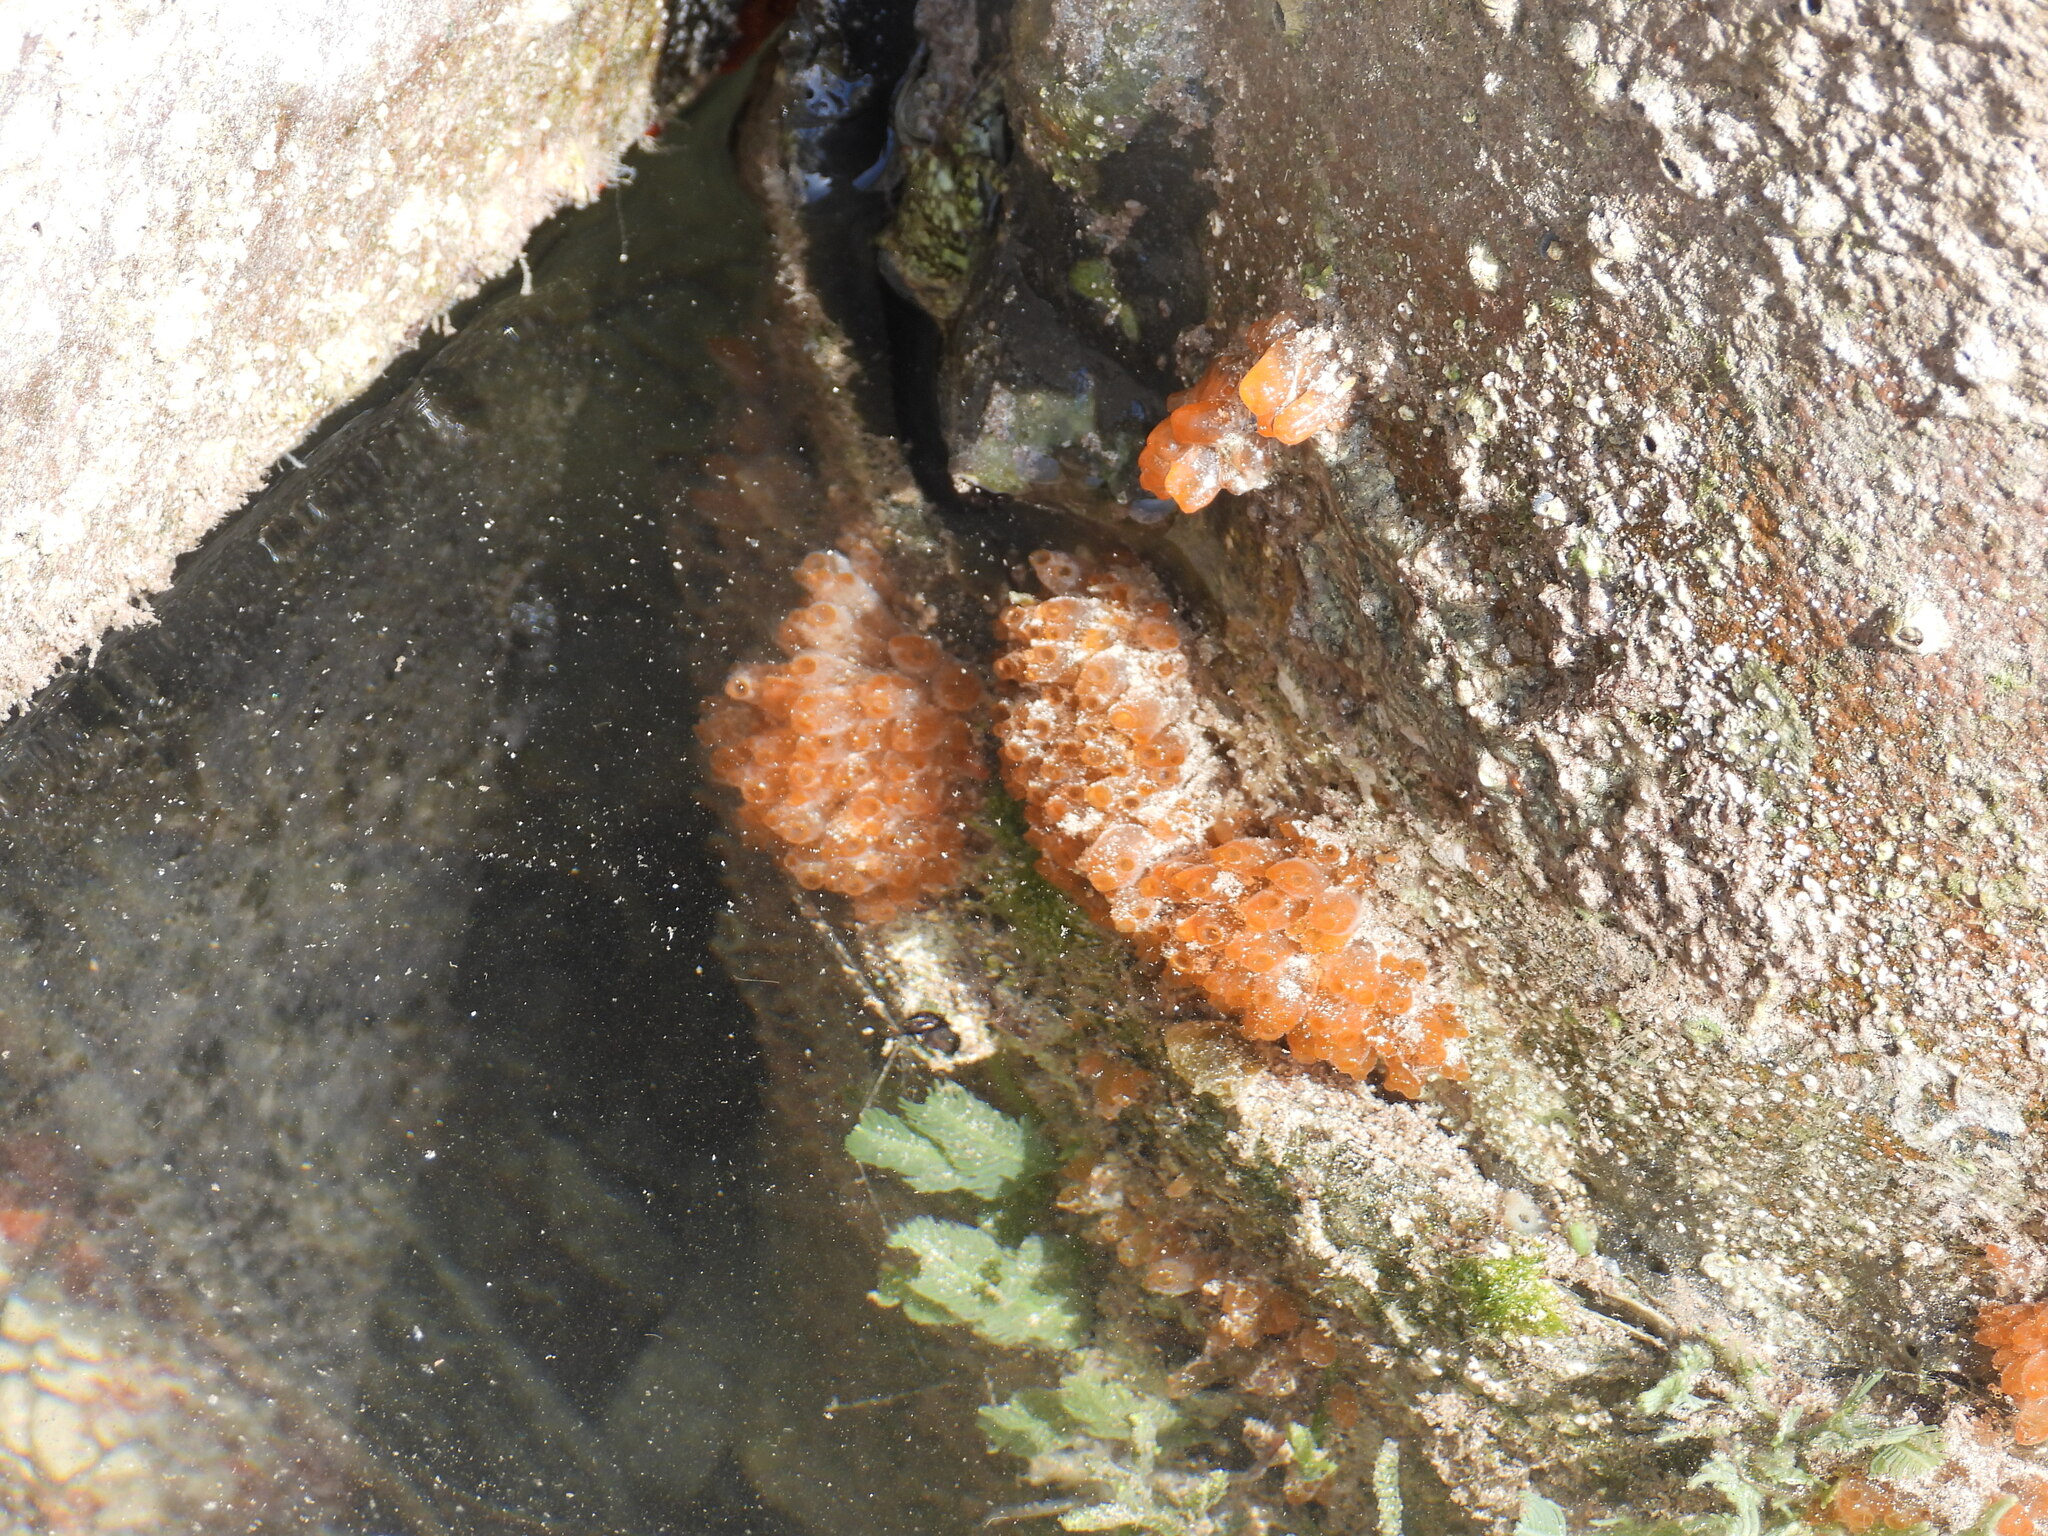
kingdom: Animalia
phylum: Chordata
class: Ascidiacea
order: Phlebobranchia
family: Perophoridae
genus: Ecteinascidia
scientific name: Ecteinascidia turbinata
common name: Mangrove tunicate
